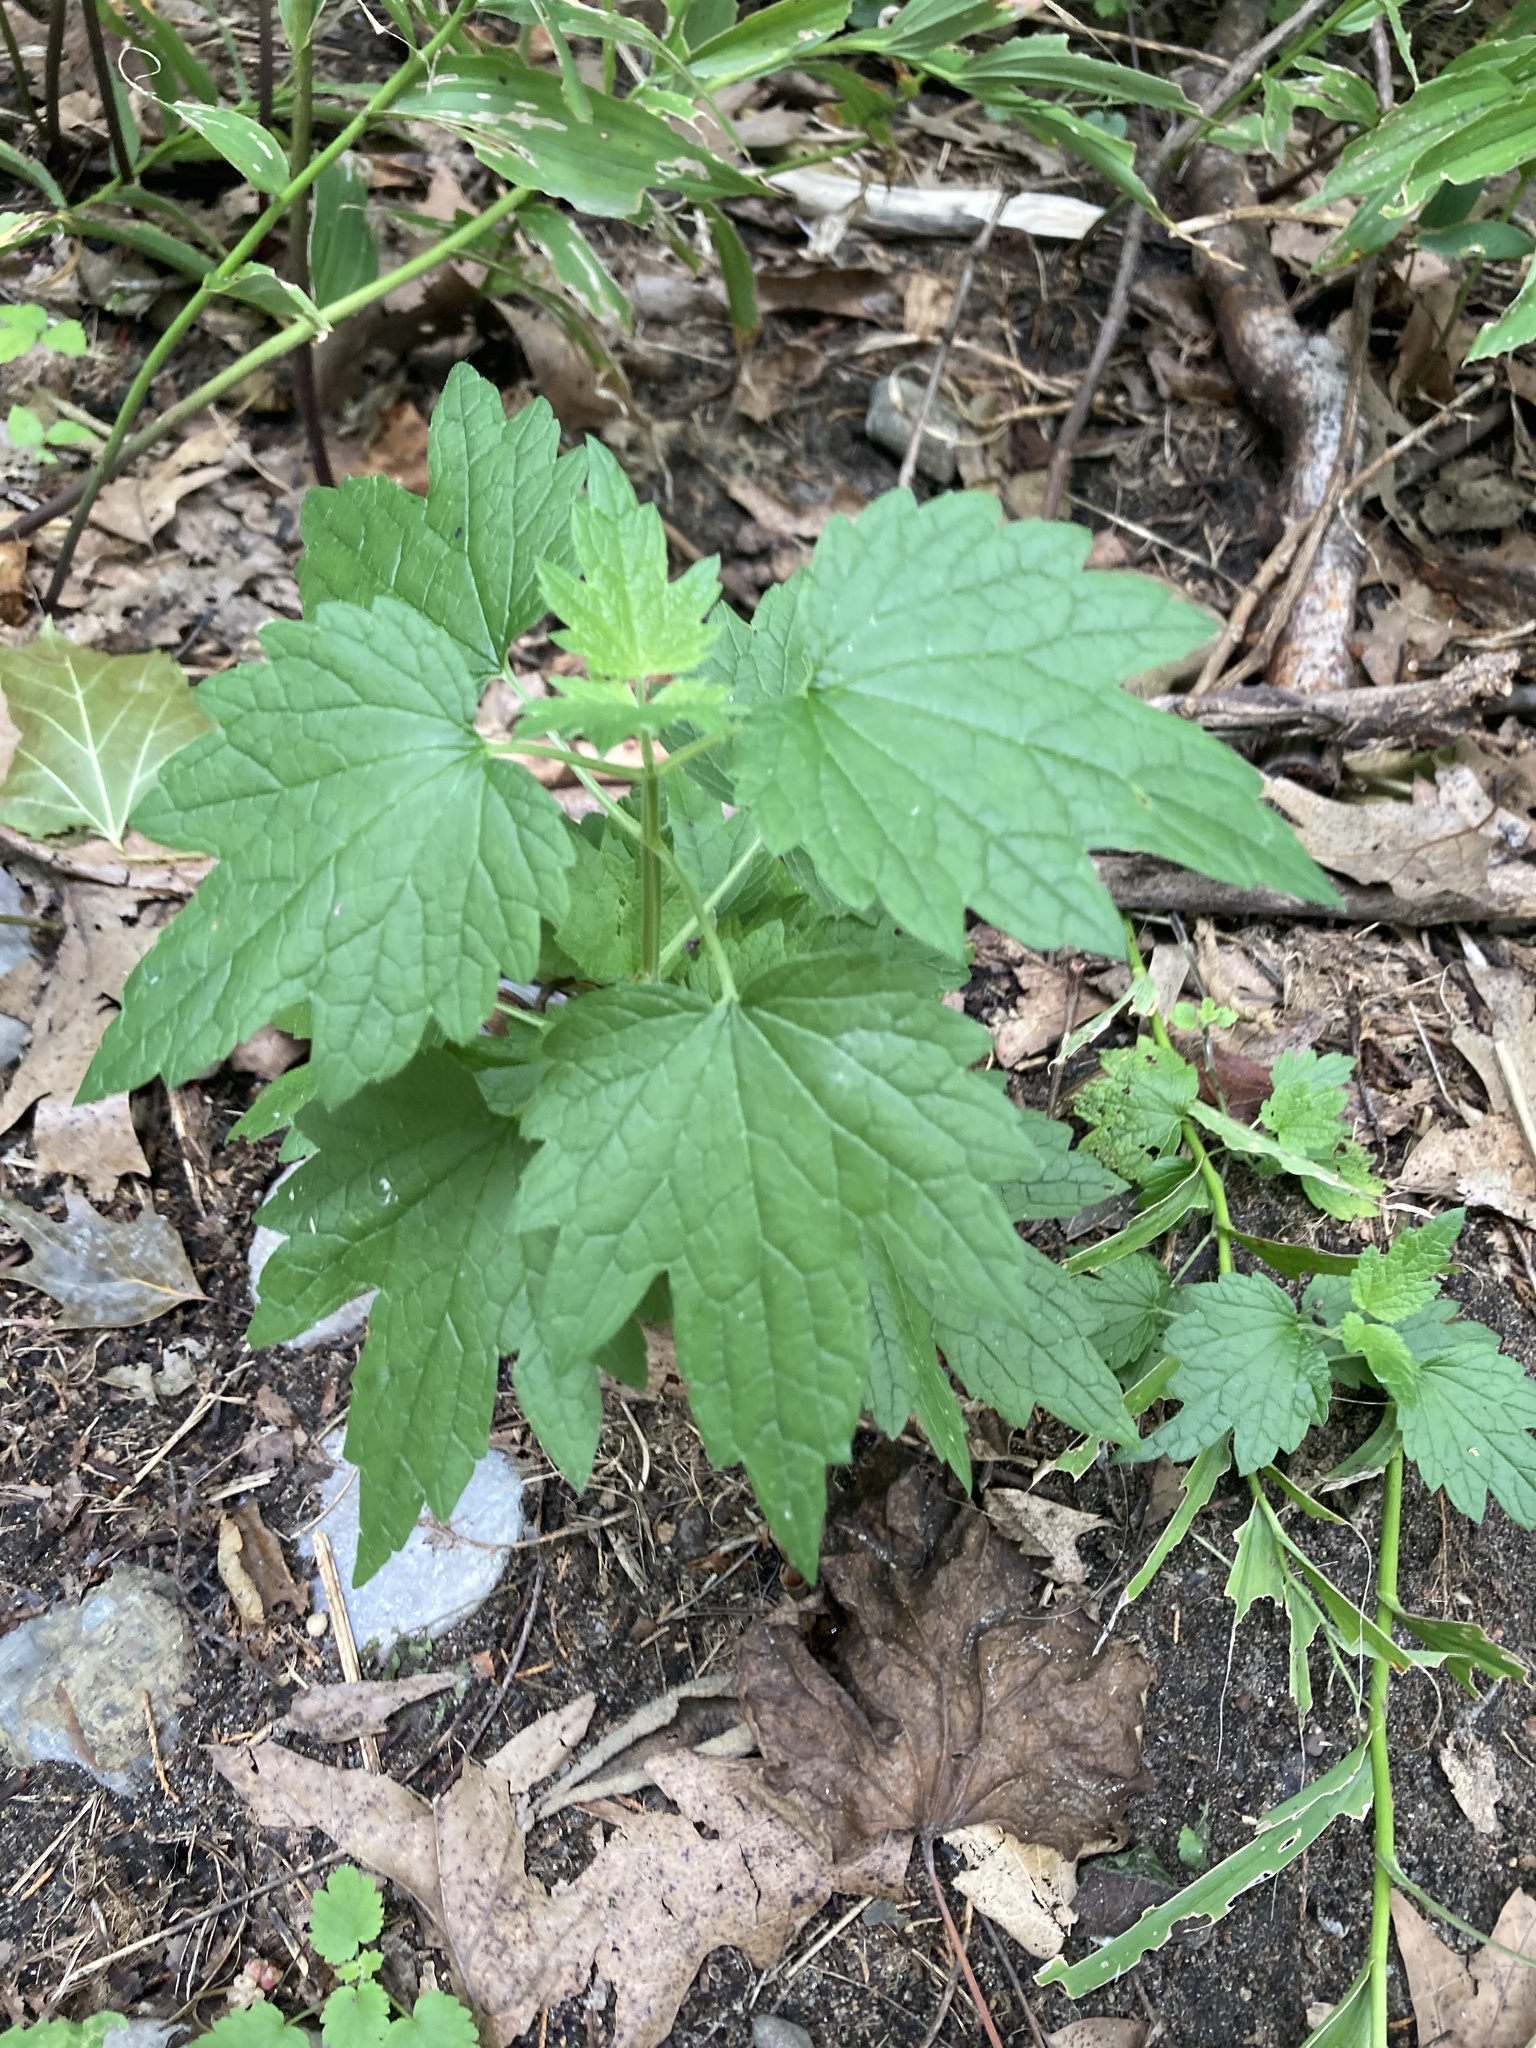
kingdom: Plantae
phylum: Tracheophyta
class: Magnoliopsida
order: Lamiales
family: Lamiaceae
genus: Leonurus
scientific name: Leonurus cardiaca
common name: Motherwort
